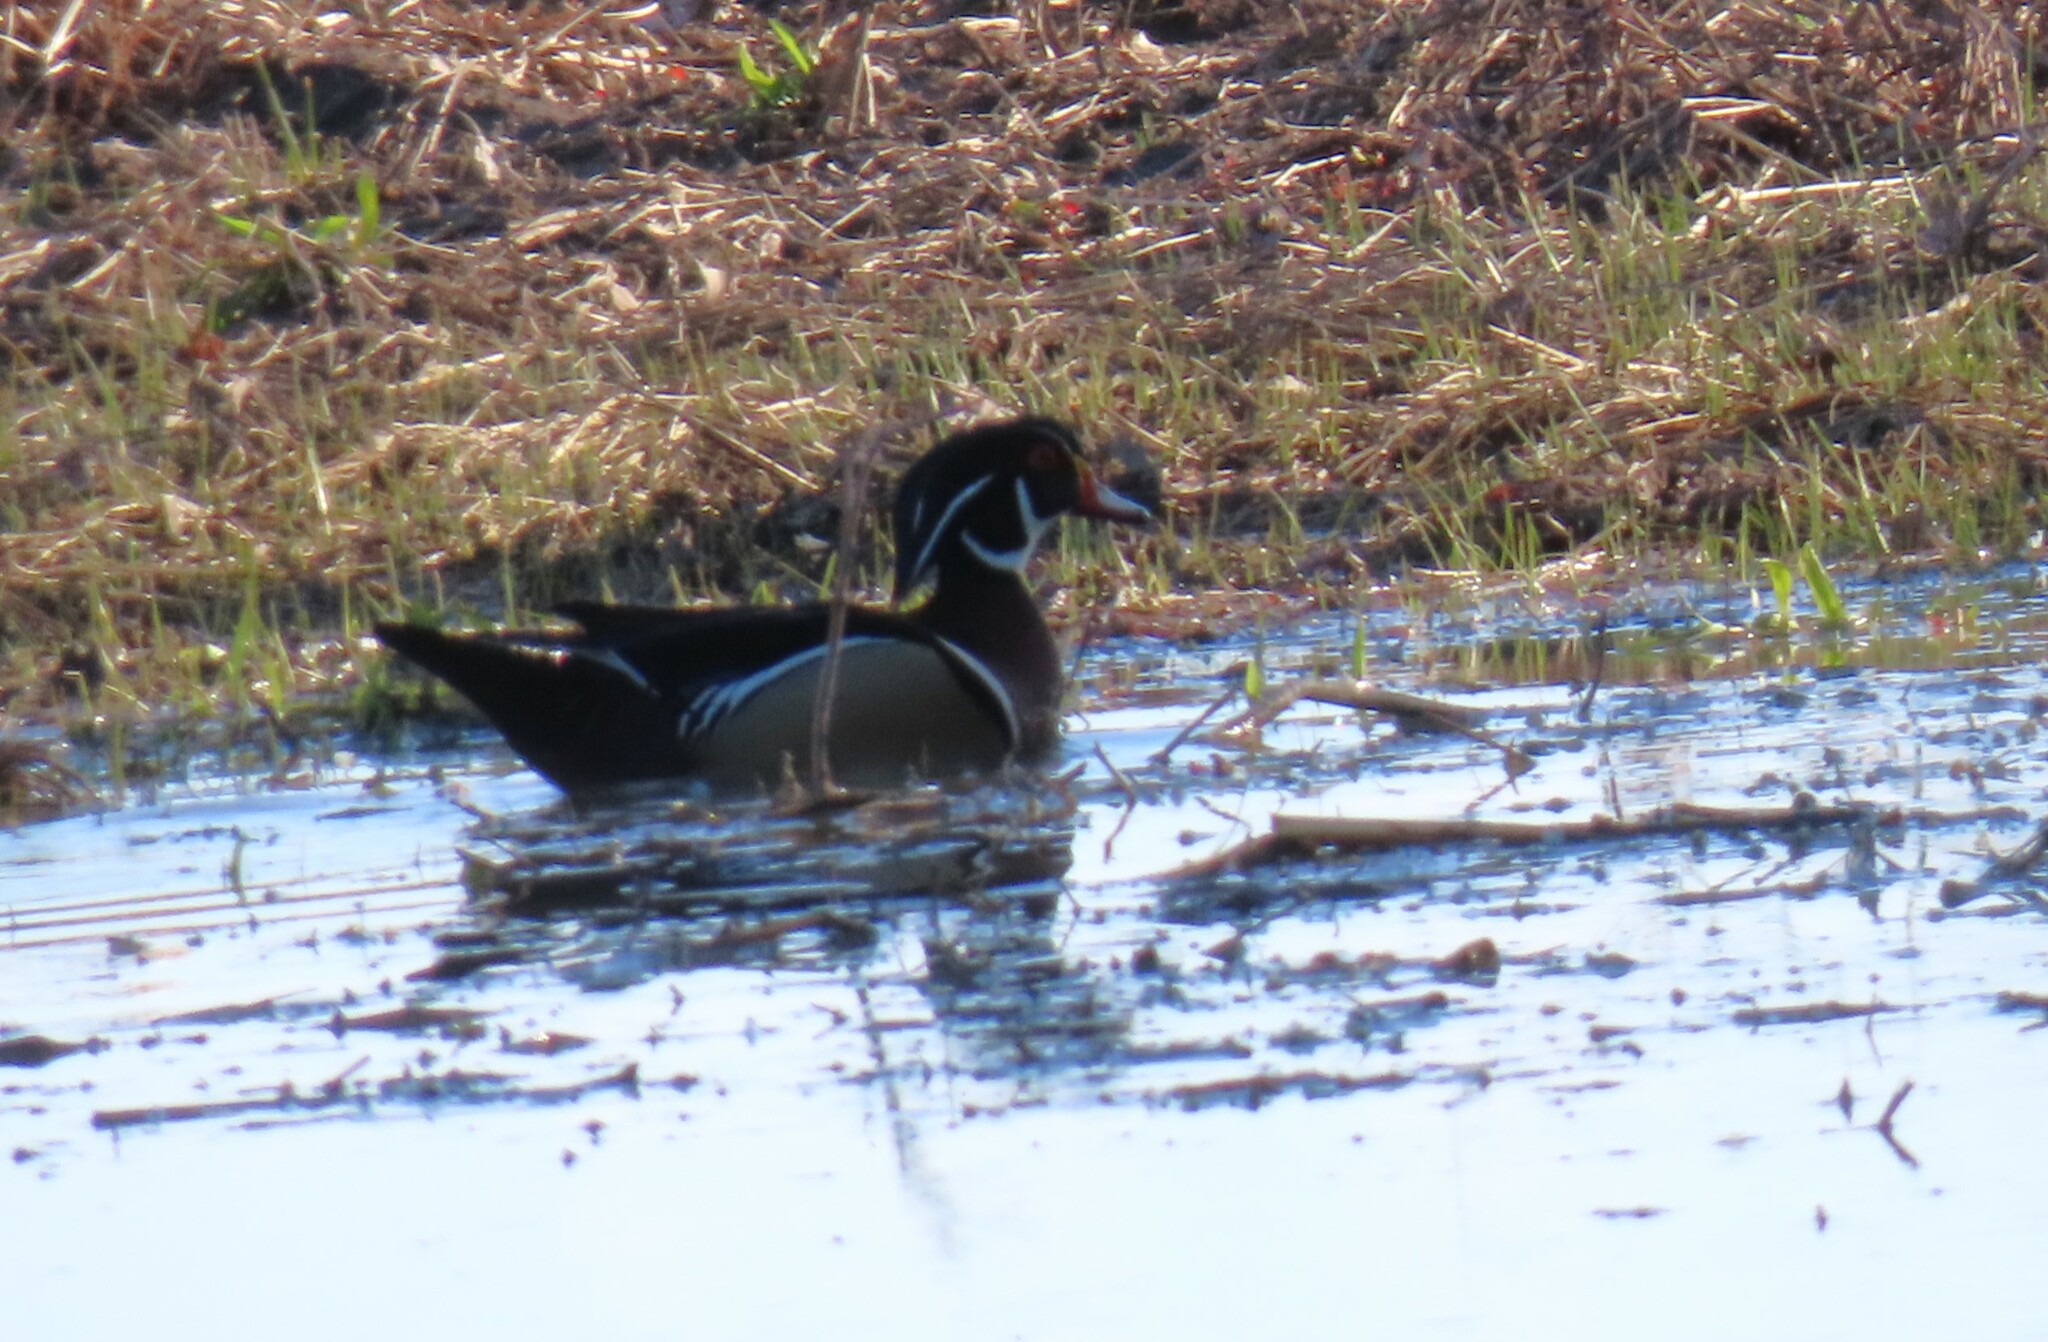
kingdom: Animalia
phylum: Chordata
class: Aves
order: Anseriformes
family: Anatidae
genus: Aix
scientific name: Aix sponsa
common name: Wood duck
